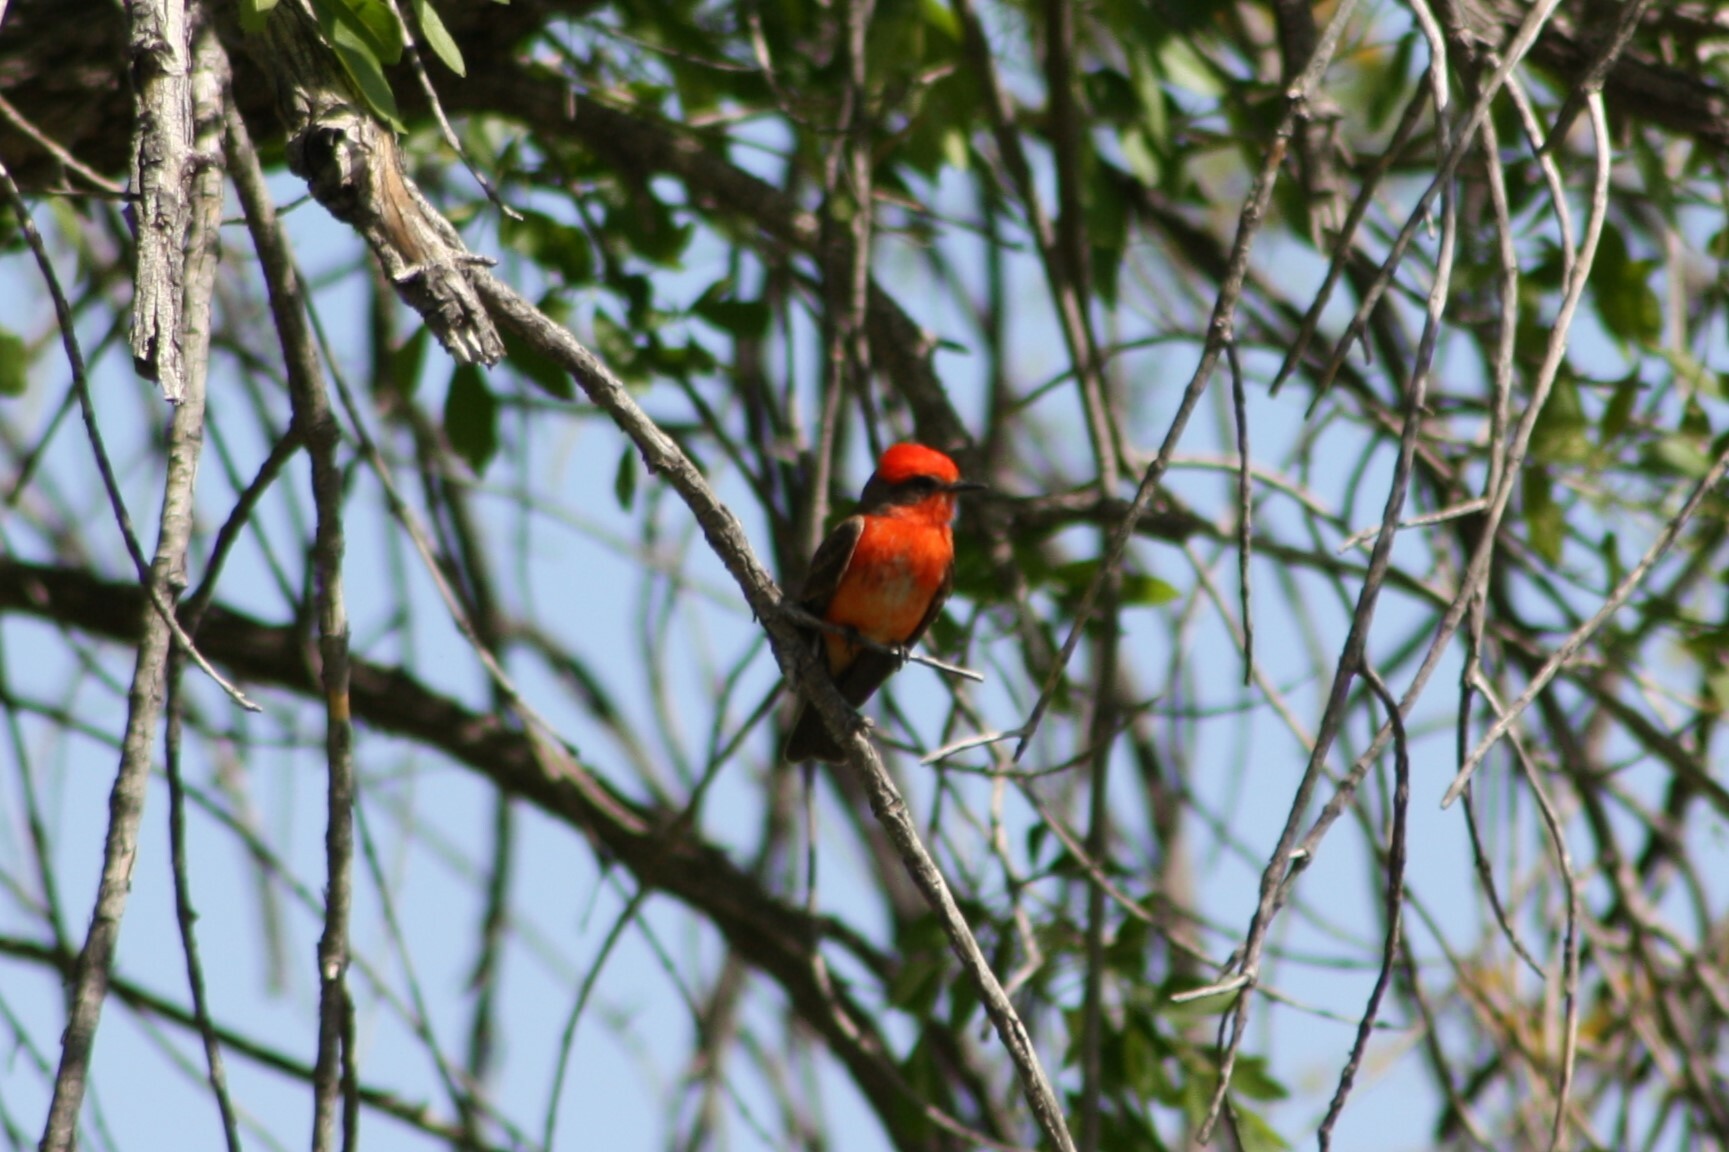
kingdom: Animalia
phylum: Chordata
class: Aves
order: Passeriformes
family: Tyrannidae
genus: Pyrocephalus
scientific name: Pyrocephalus rubinus
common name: Vermilion flycatcher
